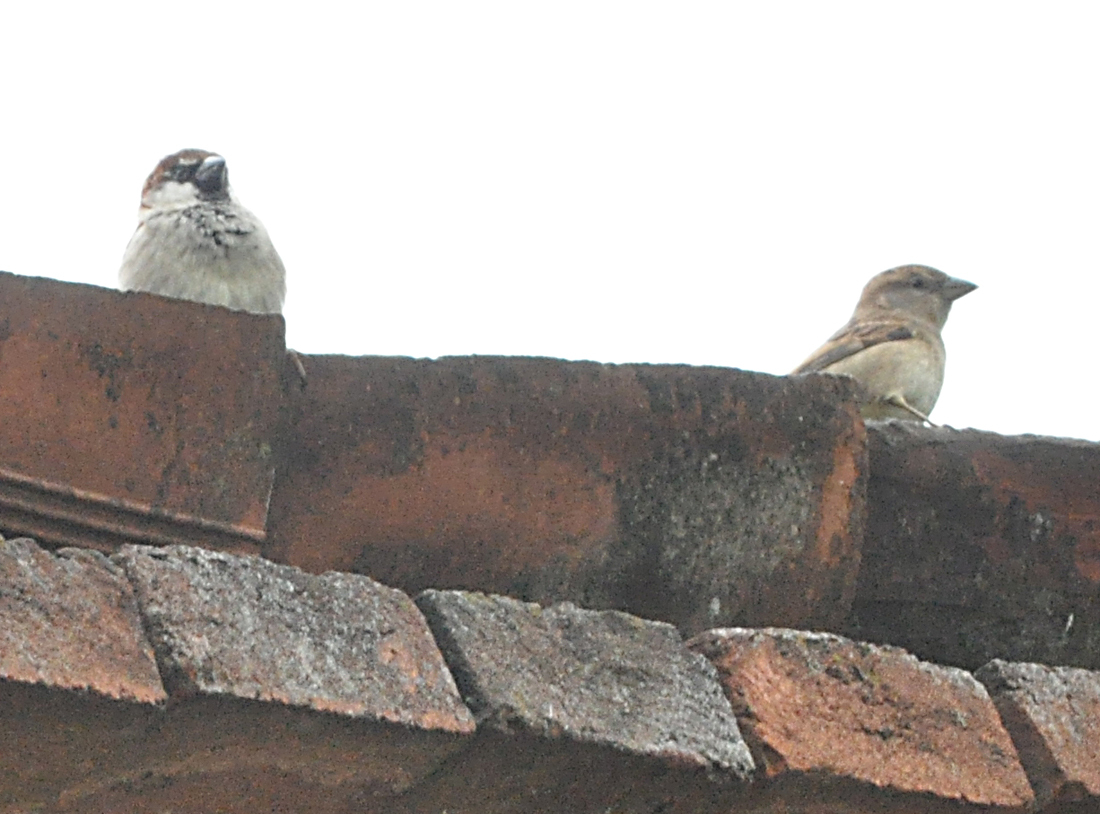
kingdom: Animalia
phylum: Chordata
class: Aves
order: Passeriformes
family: Passeridae
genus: Passer
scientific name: Passer italiae
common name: Italian sparrow
